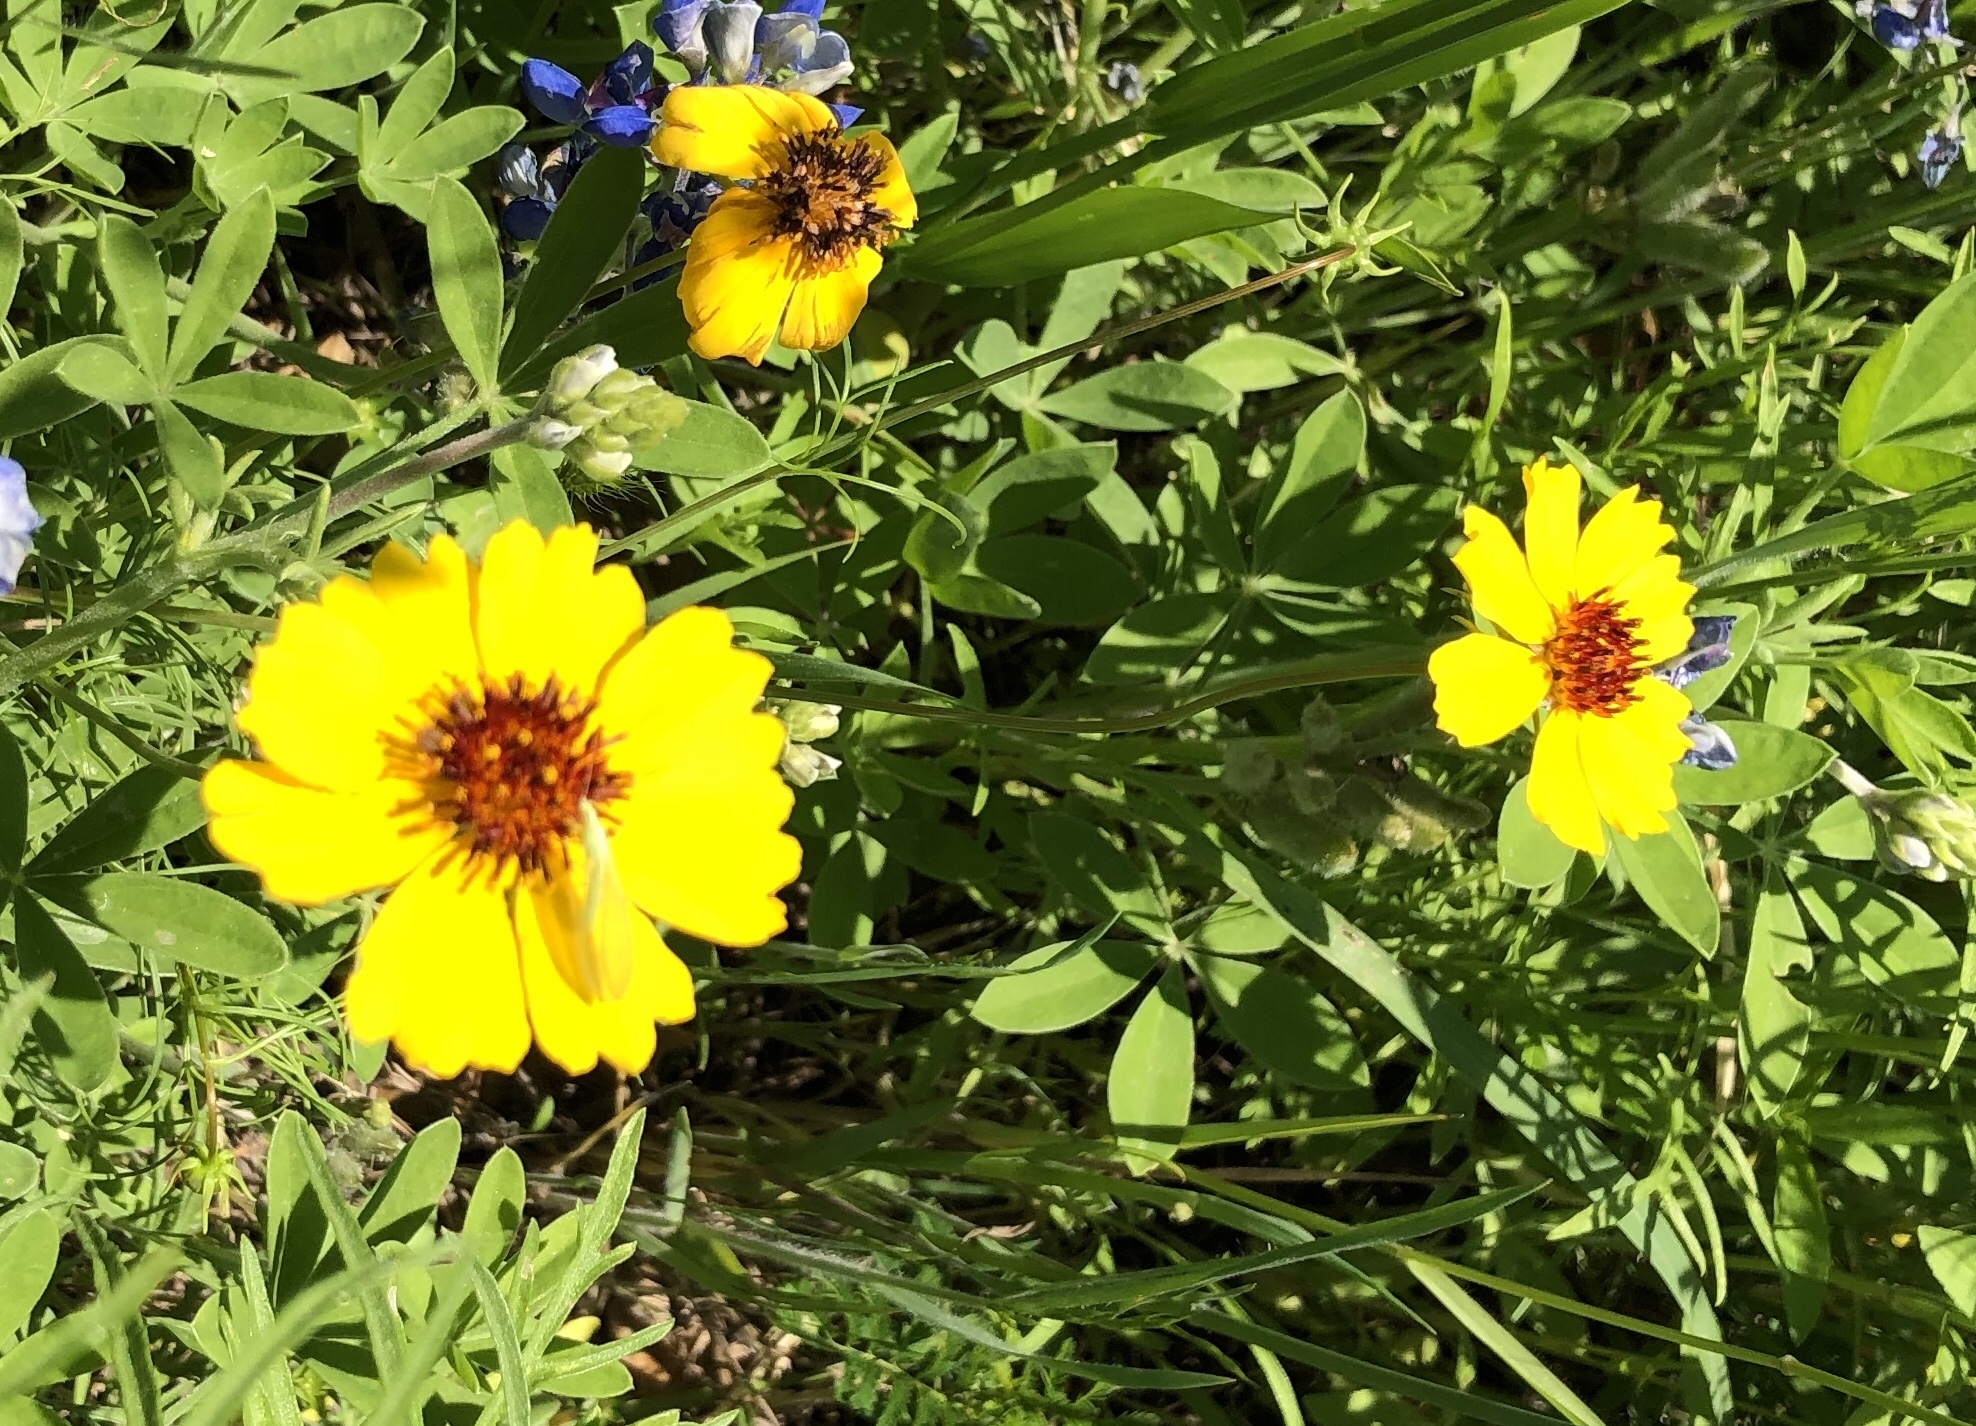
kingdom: Plantae
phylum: Tracheophyta
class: Magnoliopsida
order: Asterales
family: Asteraceae
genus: Thelesperma
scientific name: Thelesperma filifolium
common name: Stiff greenthread
